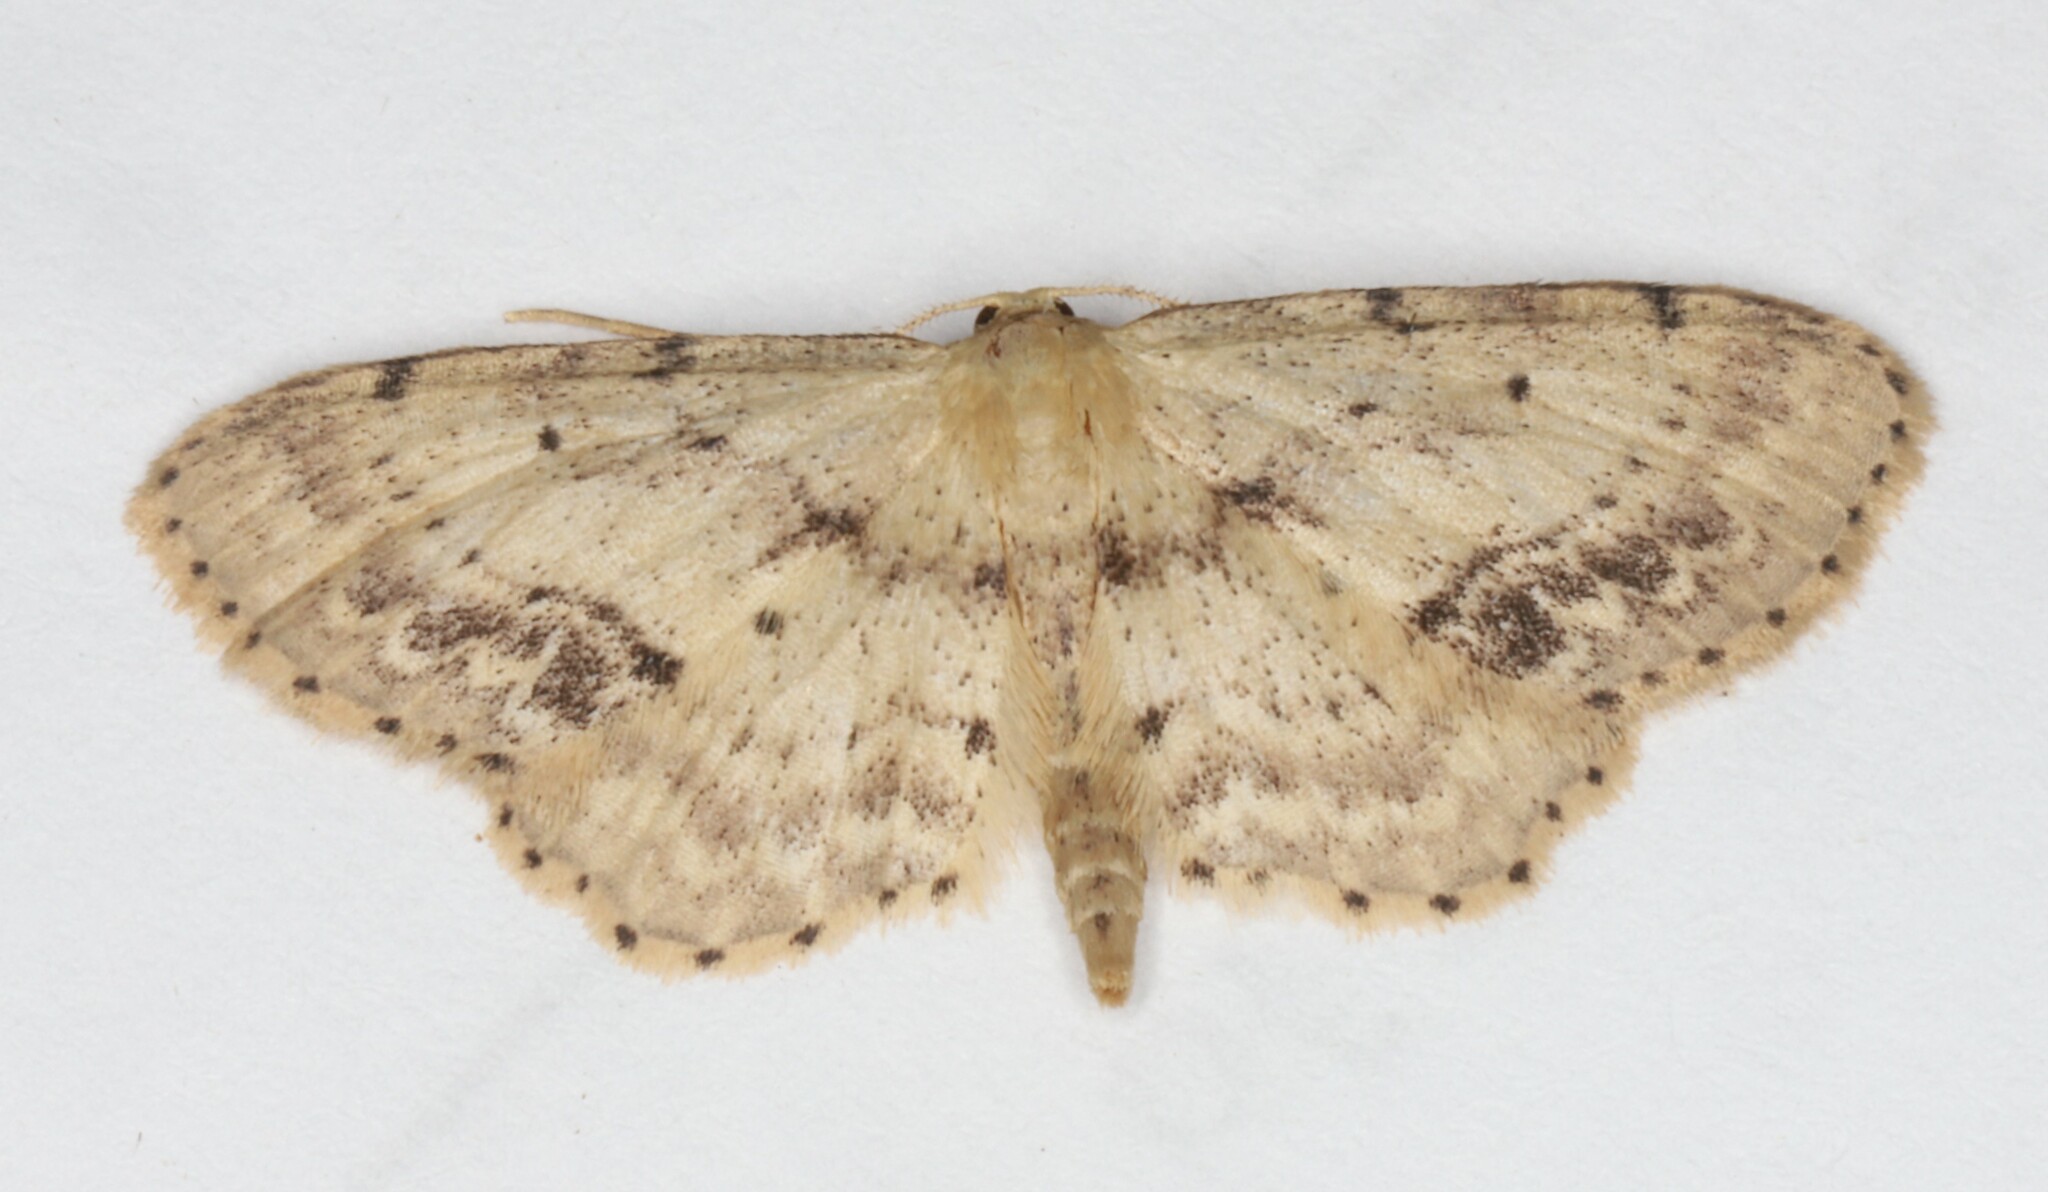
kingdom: Animalia
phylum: Arthropoda
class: Insecta
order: Lepidoptera
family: Geometridae
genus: Idaea
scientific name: Idaea dimidiata
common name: Single-dotted wave
